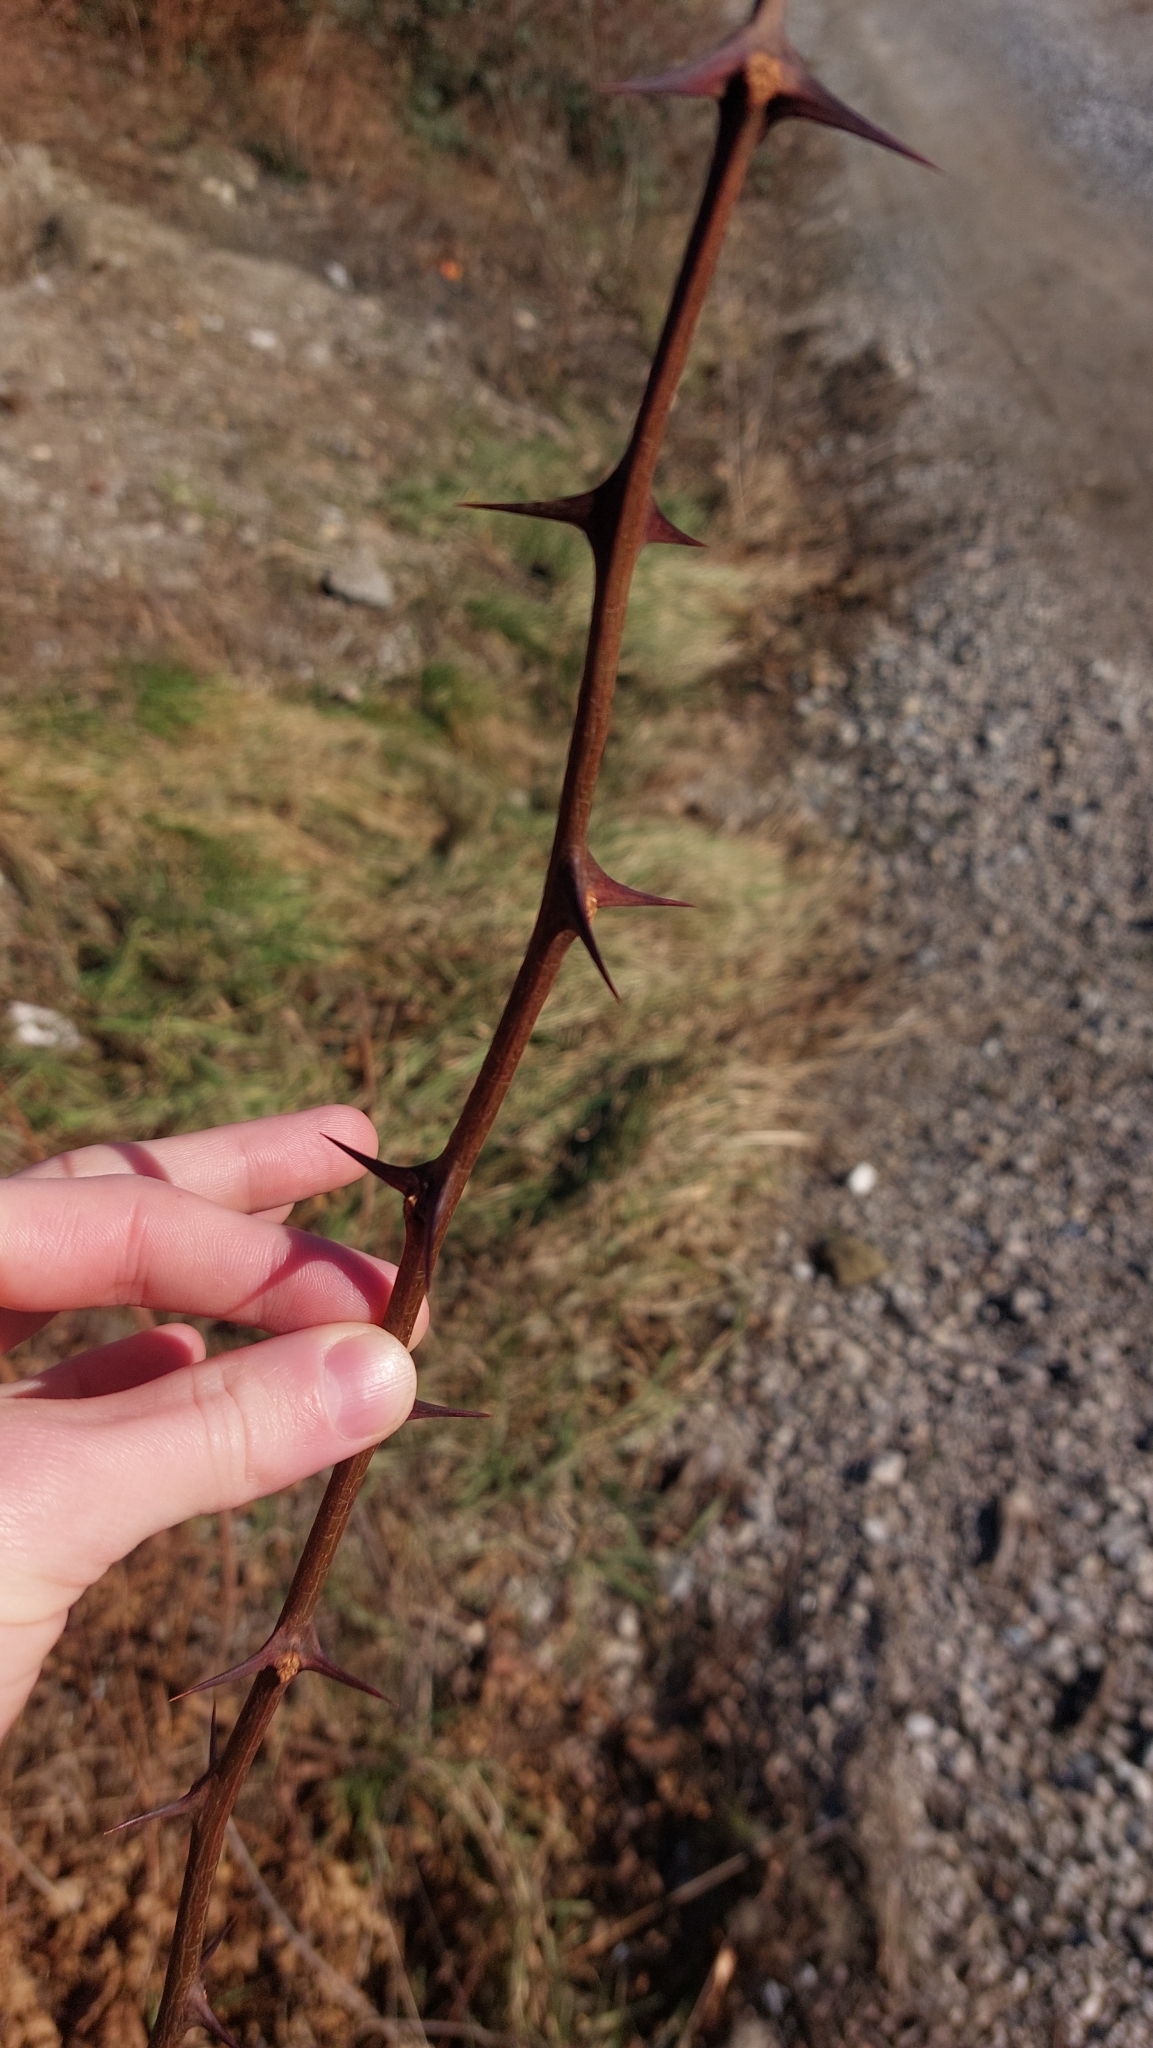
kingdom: Plantae
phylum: Tracheophyta
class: Magnoliopsida
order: Fabales
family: Fabaceae
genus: Robinia
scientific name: Robinia pseudoacacia
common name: Black locust
